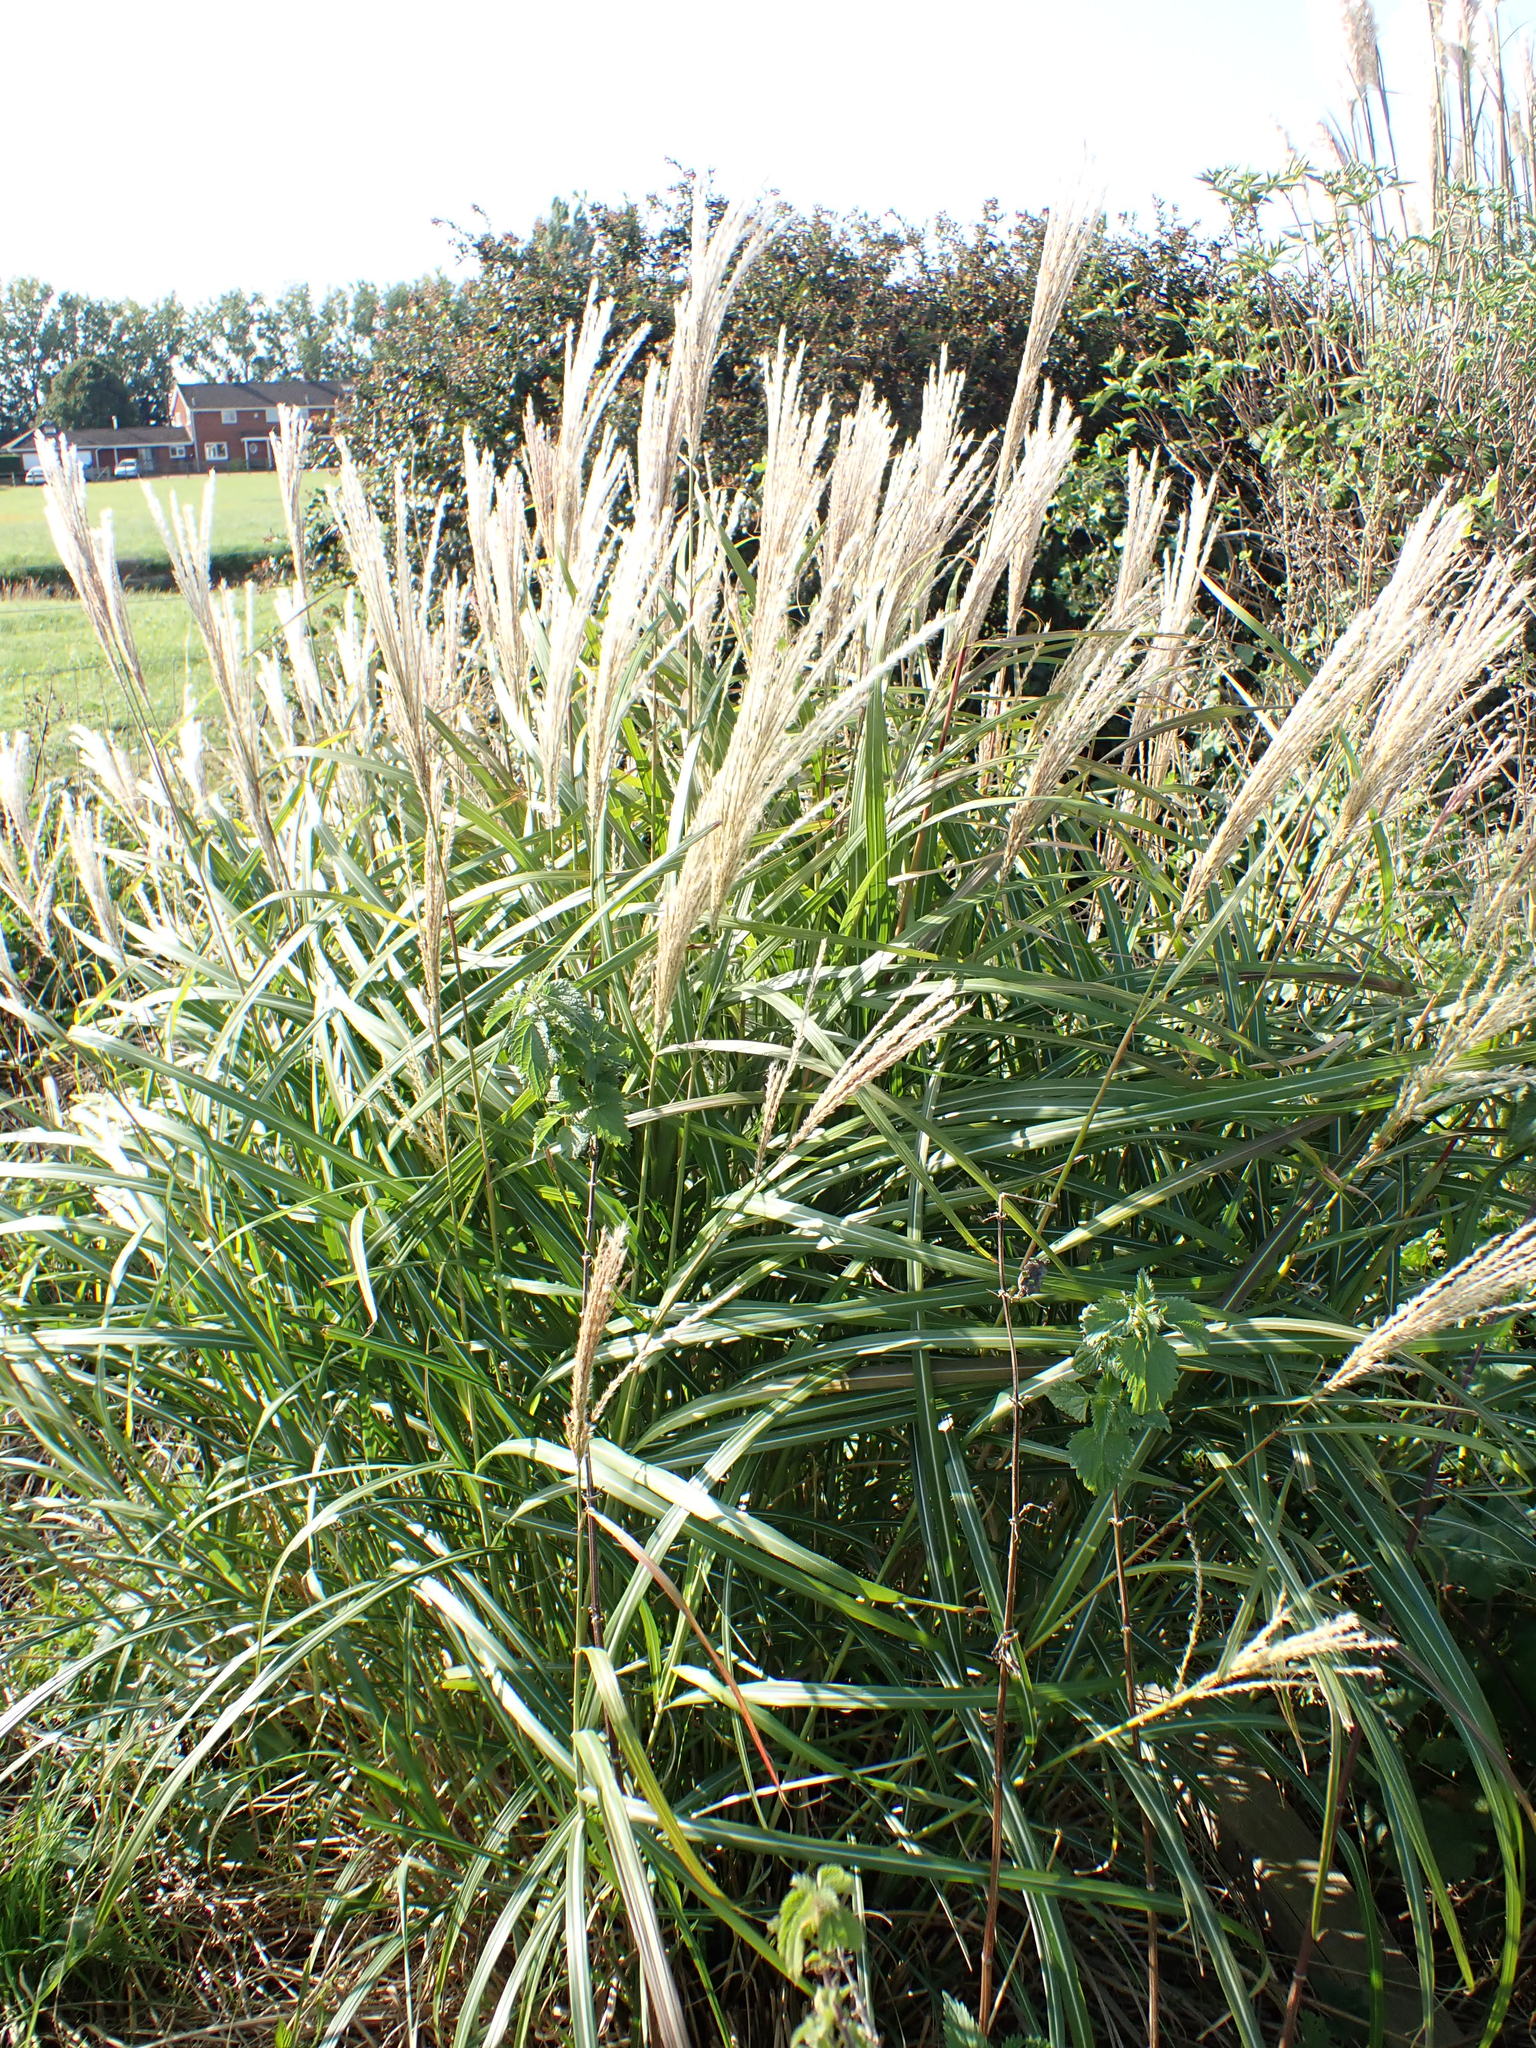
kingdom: Plantae
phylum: Tracheophyta
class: Liliopsida
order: Poales
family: Poaceae
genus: Miscanthus
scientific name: Miscanthus sinensis
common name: Chinese silvergrass
